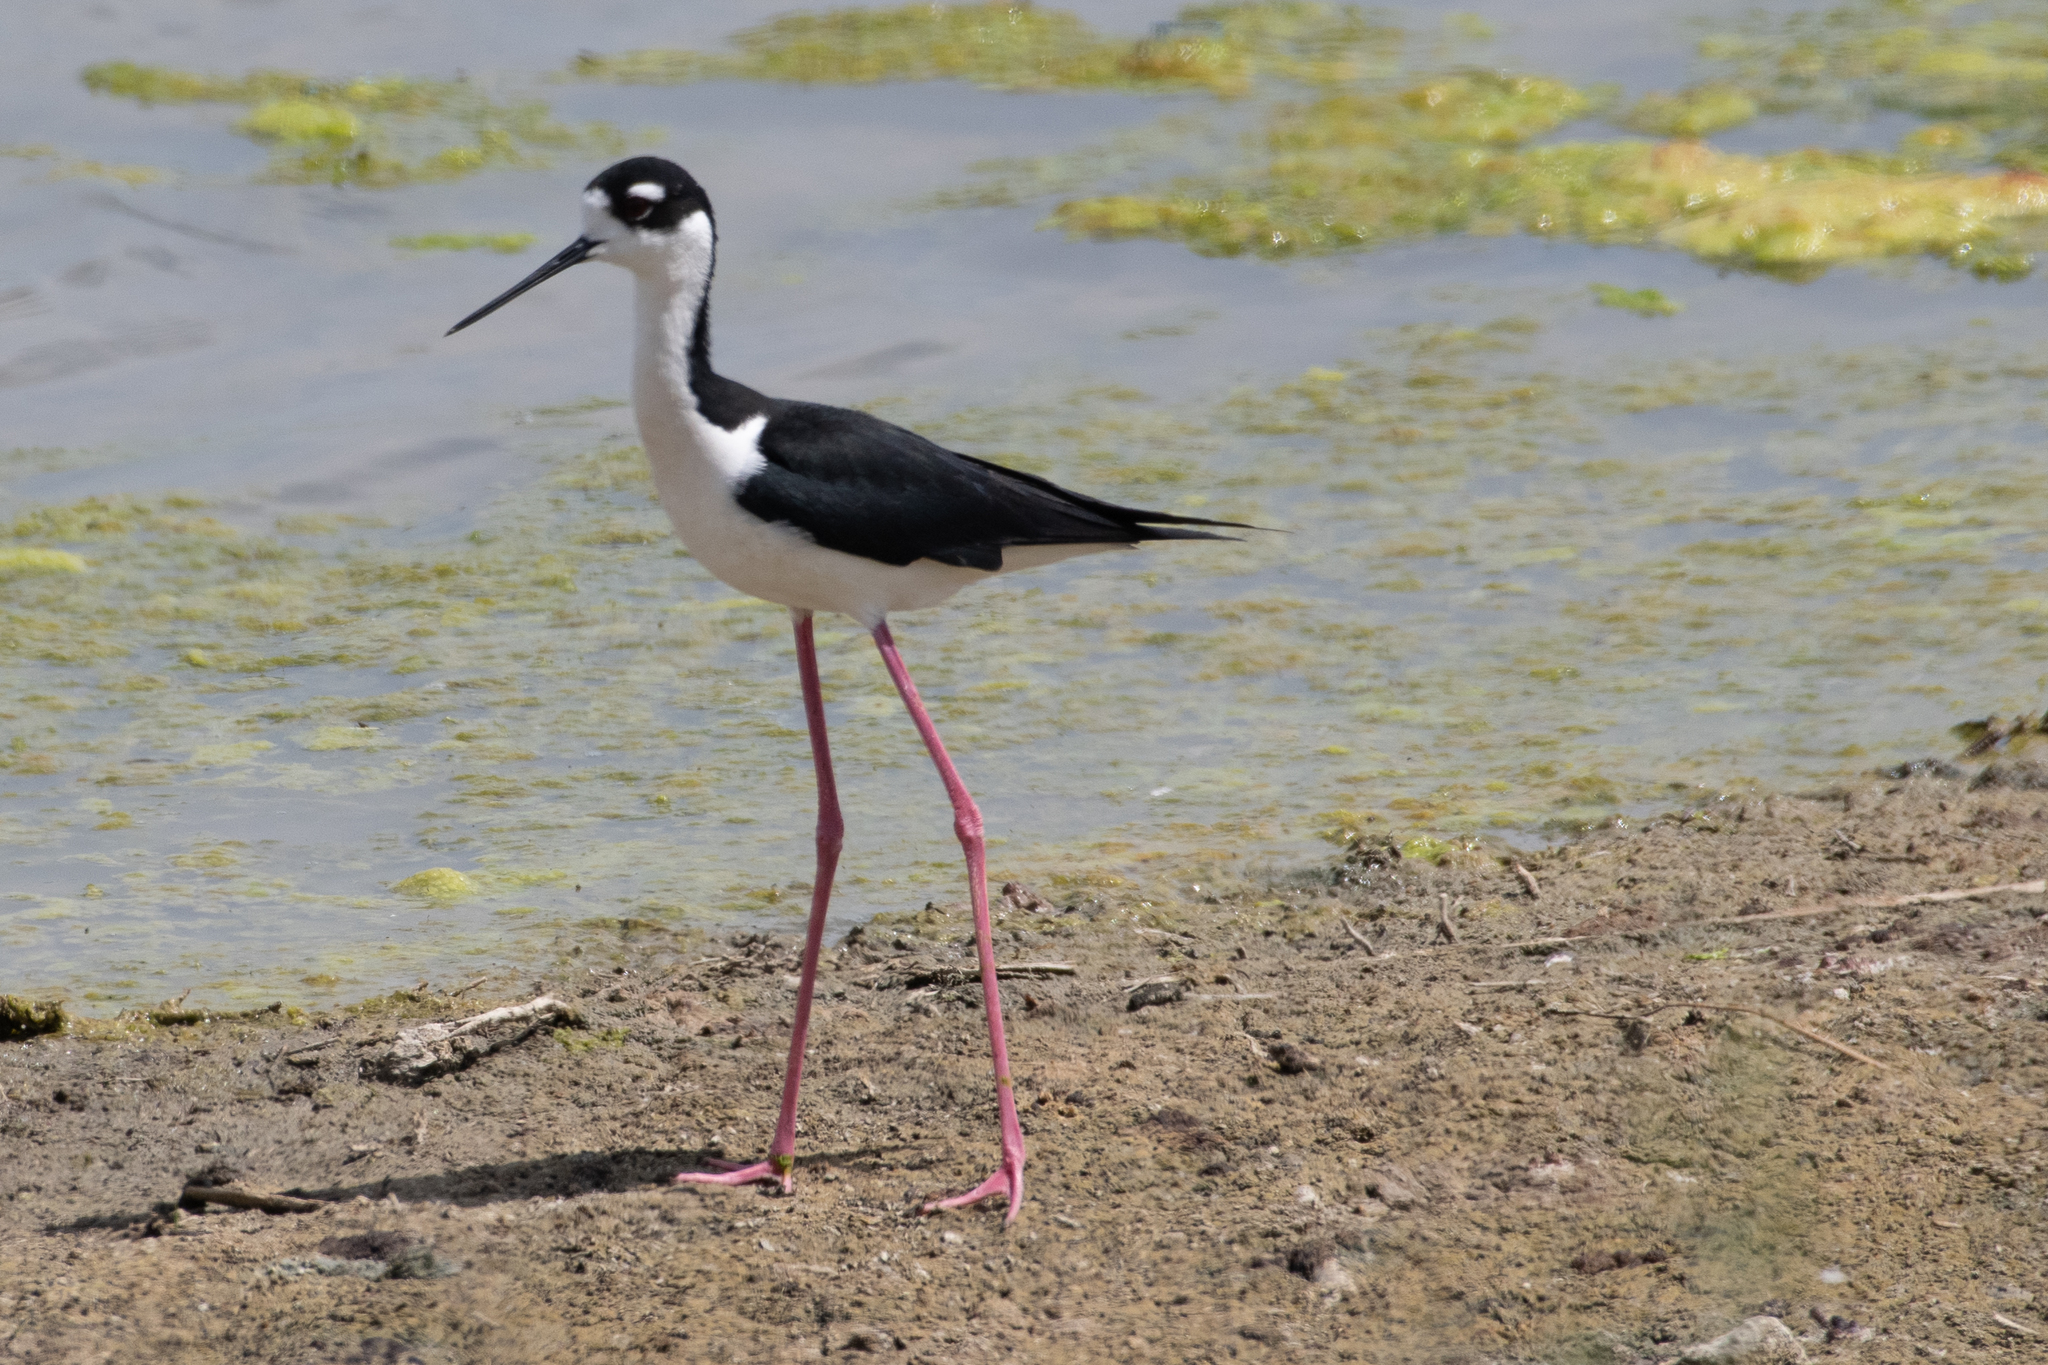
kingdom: Animalia
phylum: Chordata
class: Aves
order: Charadriiformes
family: Recurvirostridae
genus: Himantopus
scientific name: Himantopus mexicanus
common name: Black-necked stilt
